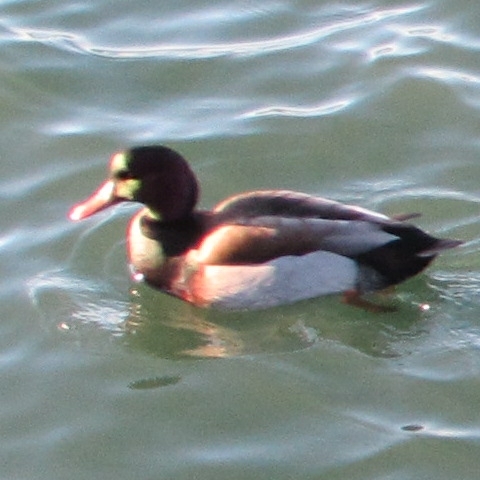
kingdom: Animalia
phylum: Chordata
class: Aves
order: Anseriformes
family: Anatidae
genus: Anas
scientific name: Anas platyrhynchos
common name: Mallard
